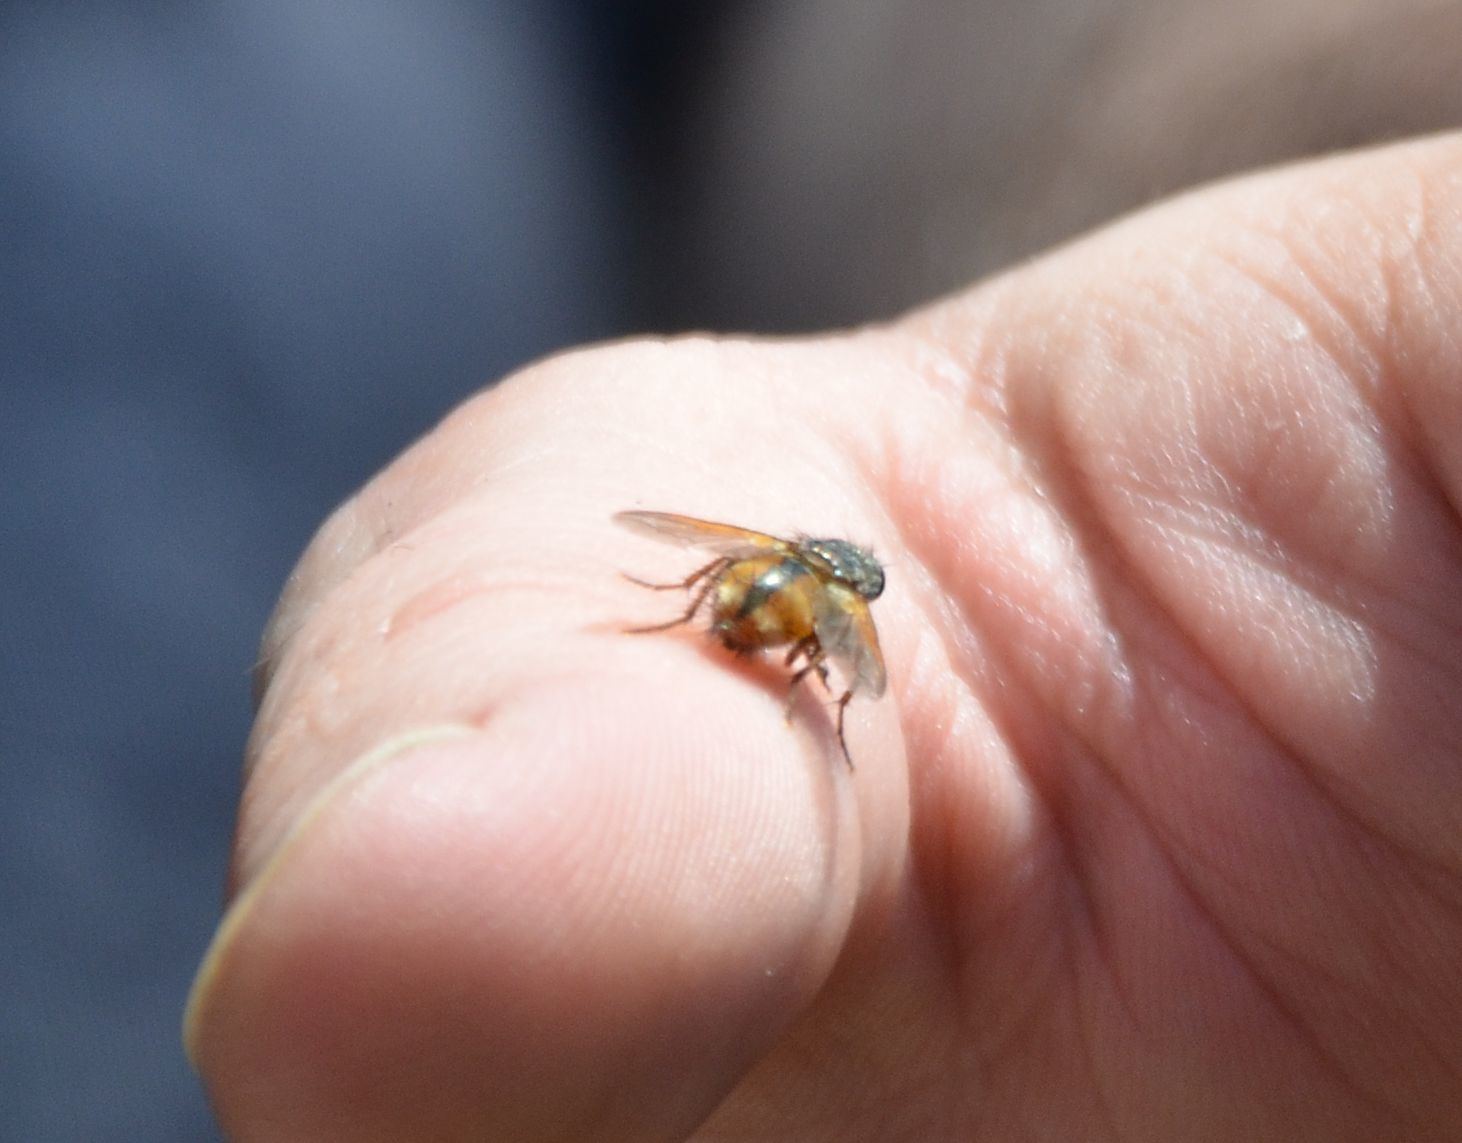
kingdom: Animalia
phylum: Arthropoda
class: Insecta
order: Diptera
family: Tachinidae
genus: Tachina
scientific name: Tachina fera
